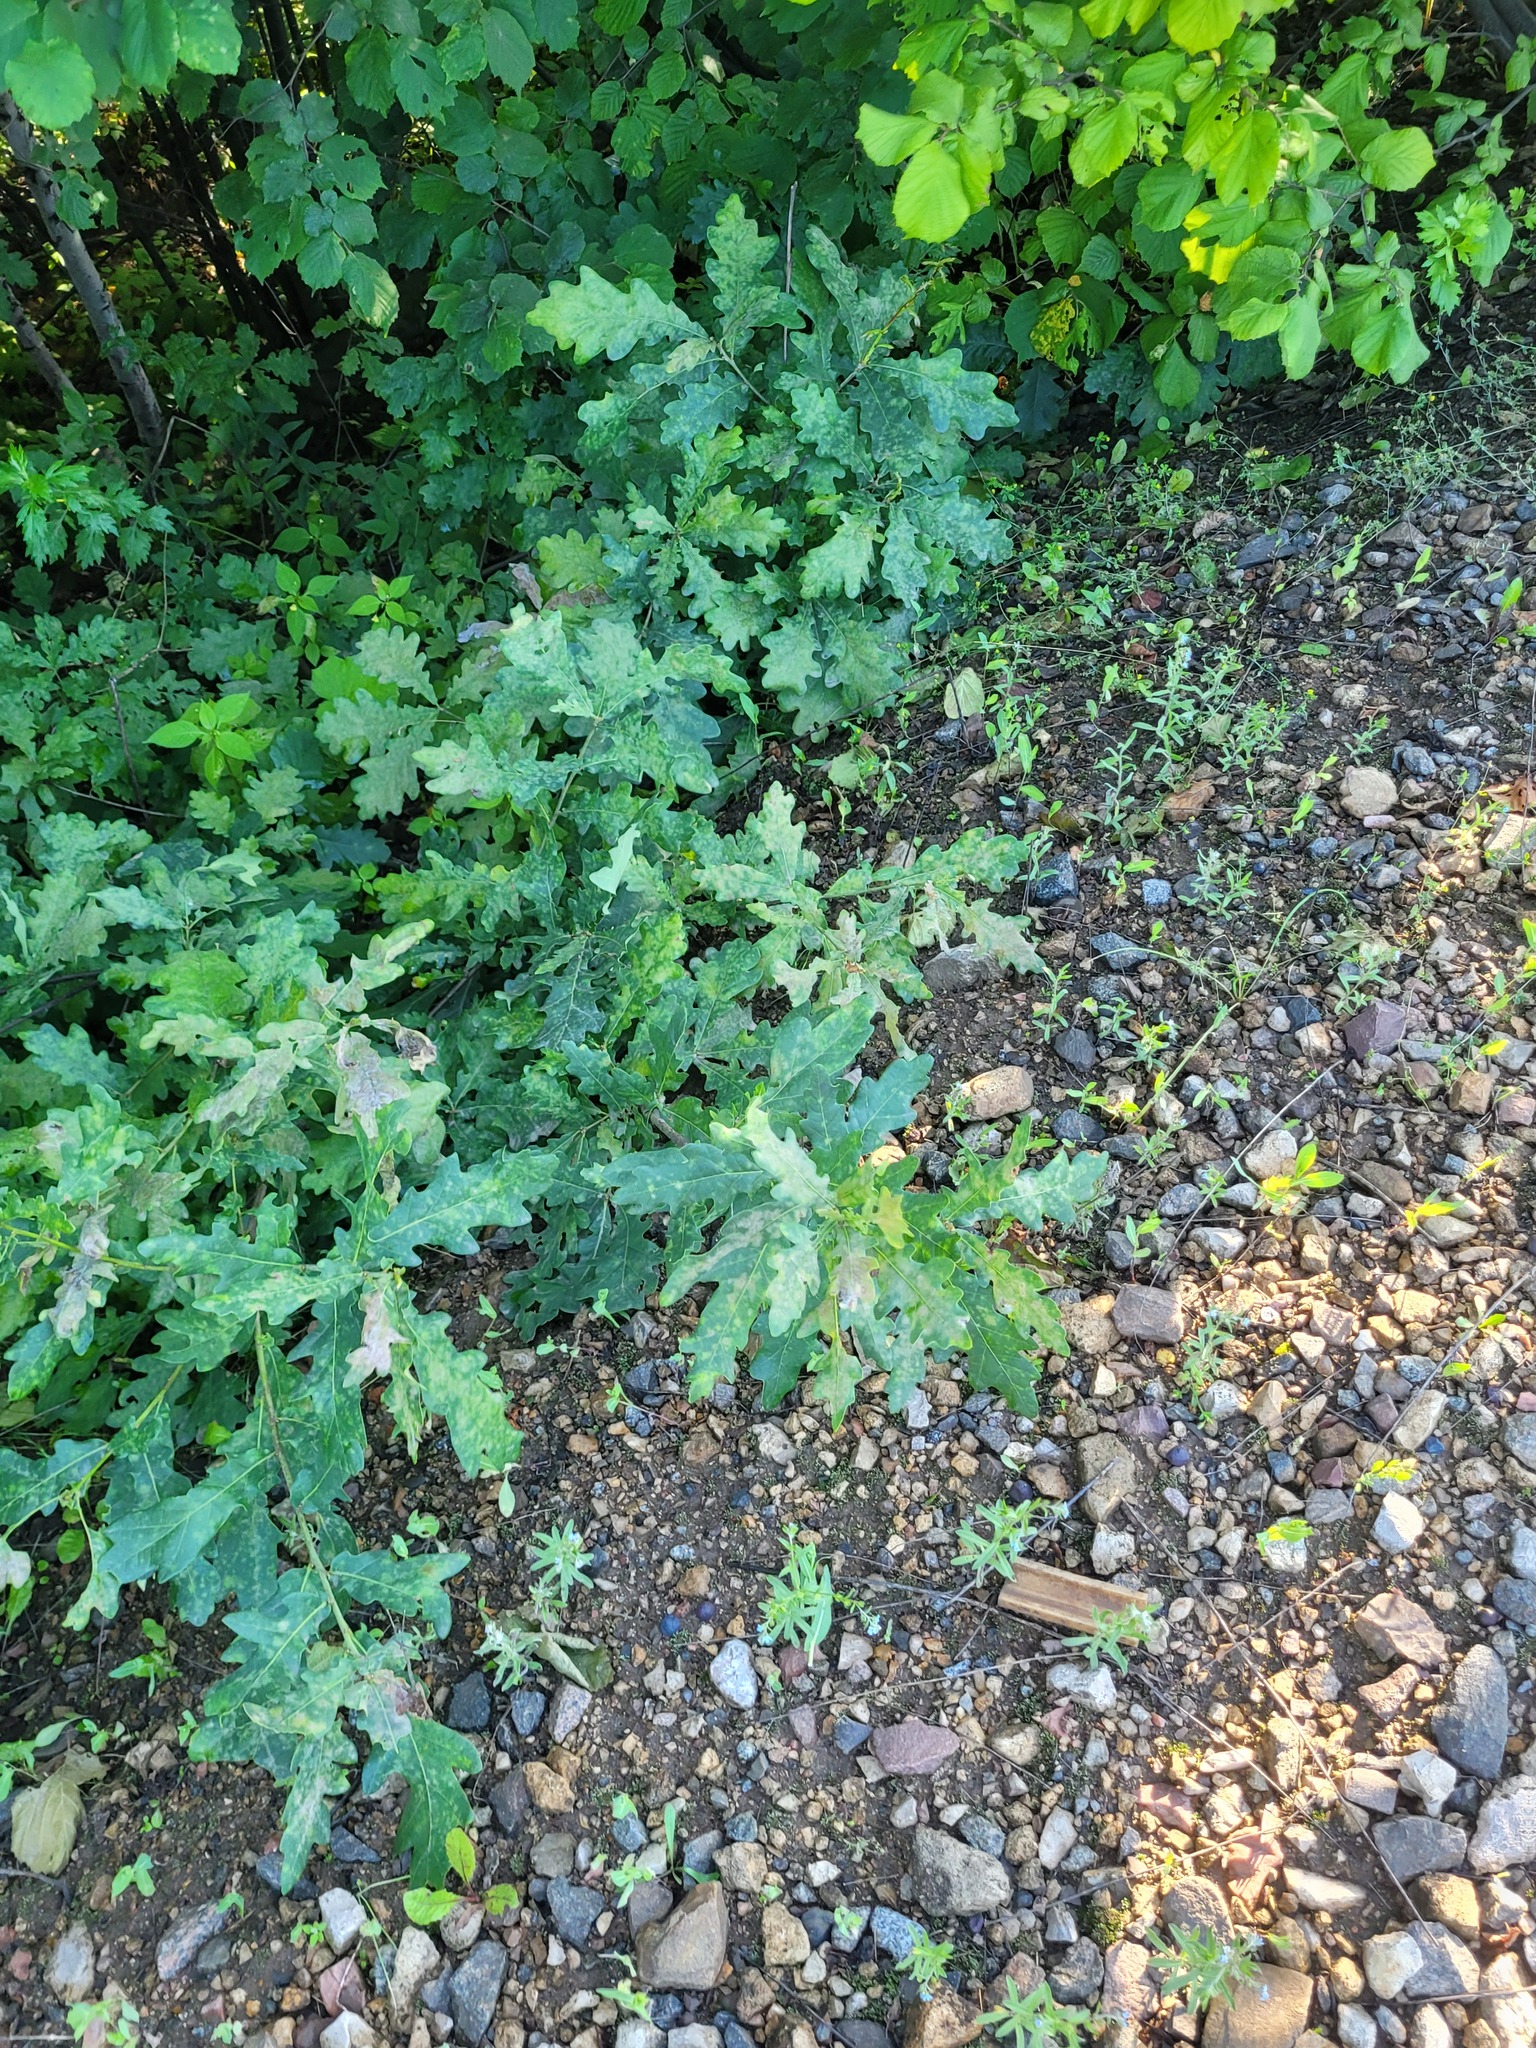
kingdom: Plantae
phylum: Tracheophyta
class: Magnoliopsida
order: Fagales
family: Fagaceae
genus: Quercus
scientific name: Quercus robur
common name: Pedunculate oak
